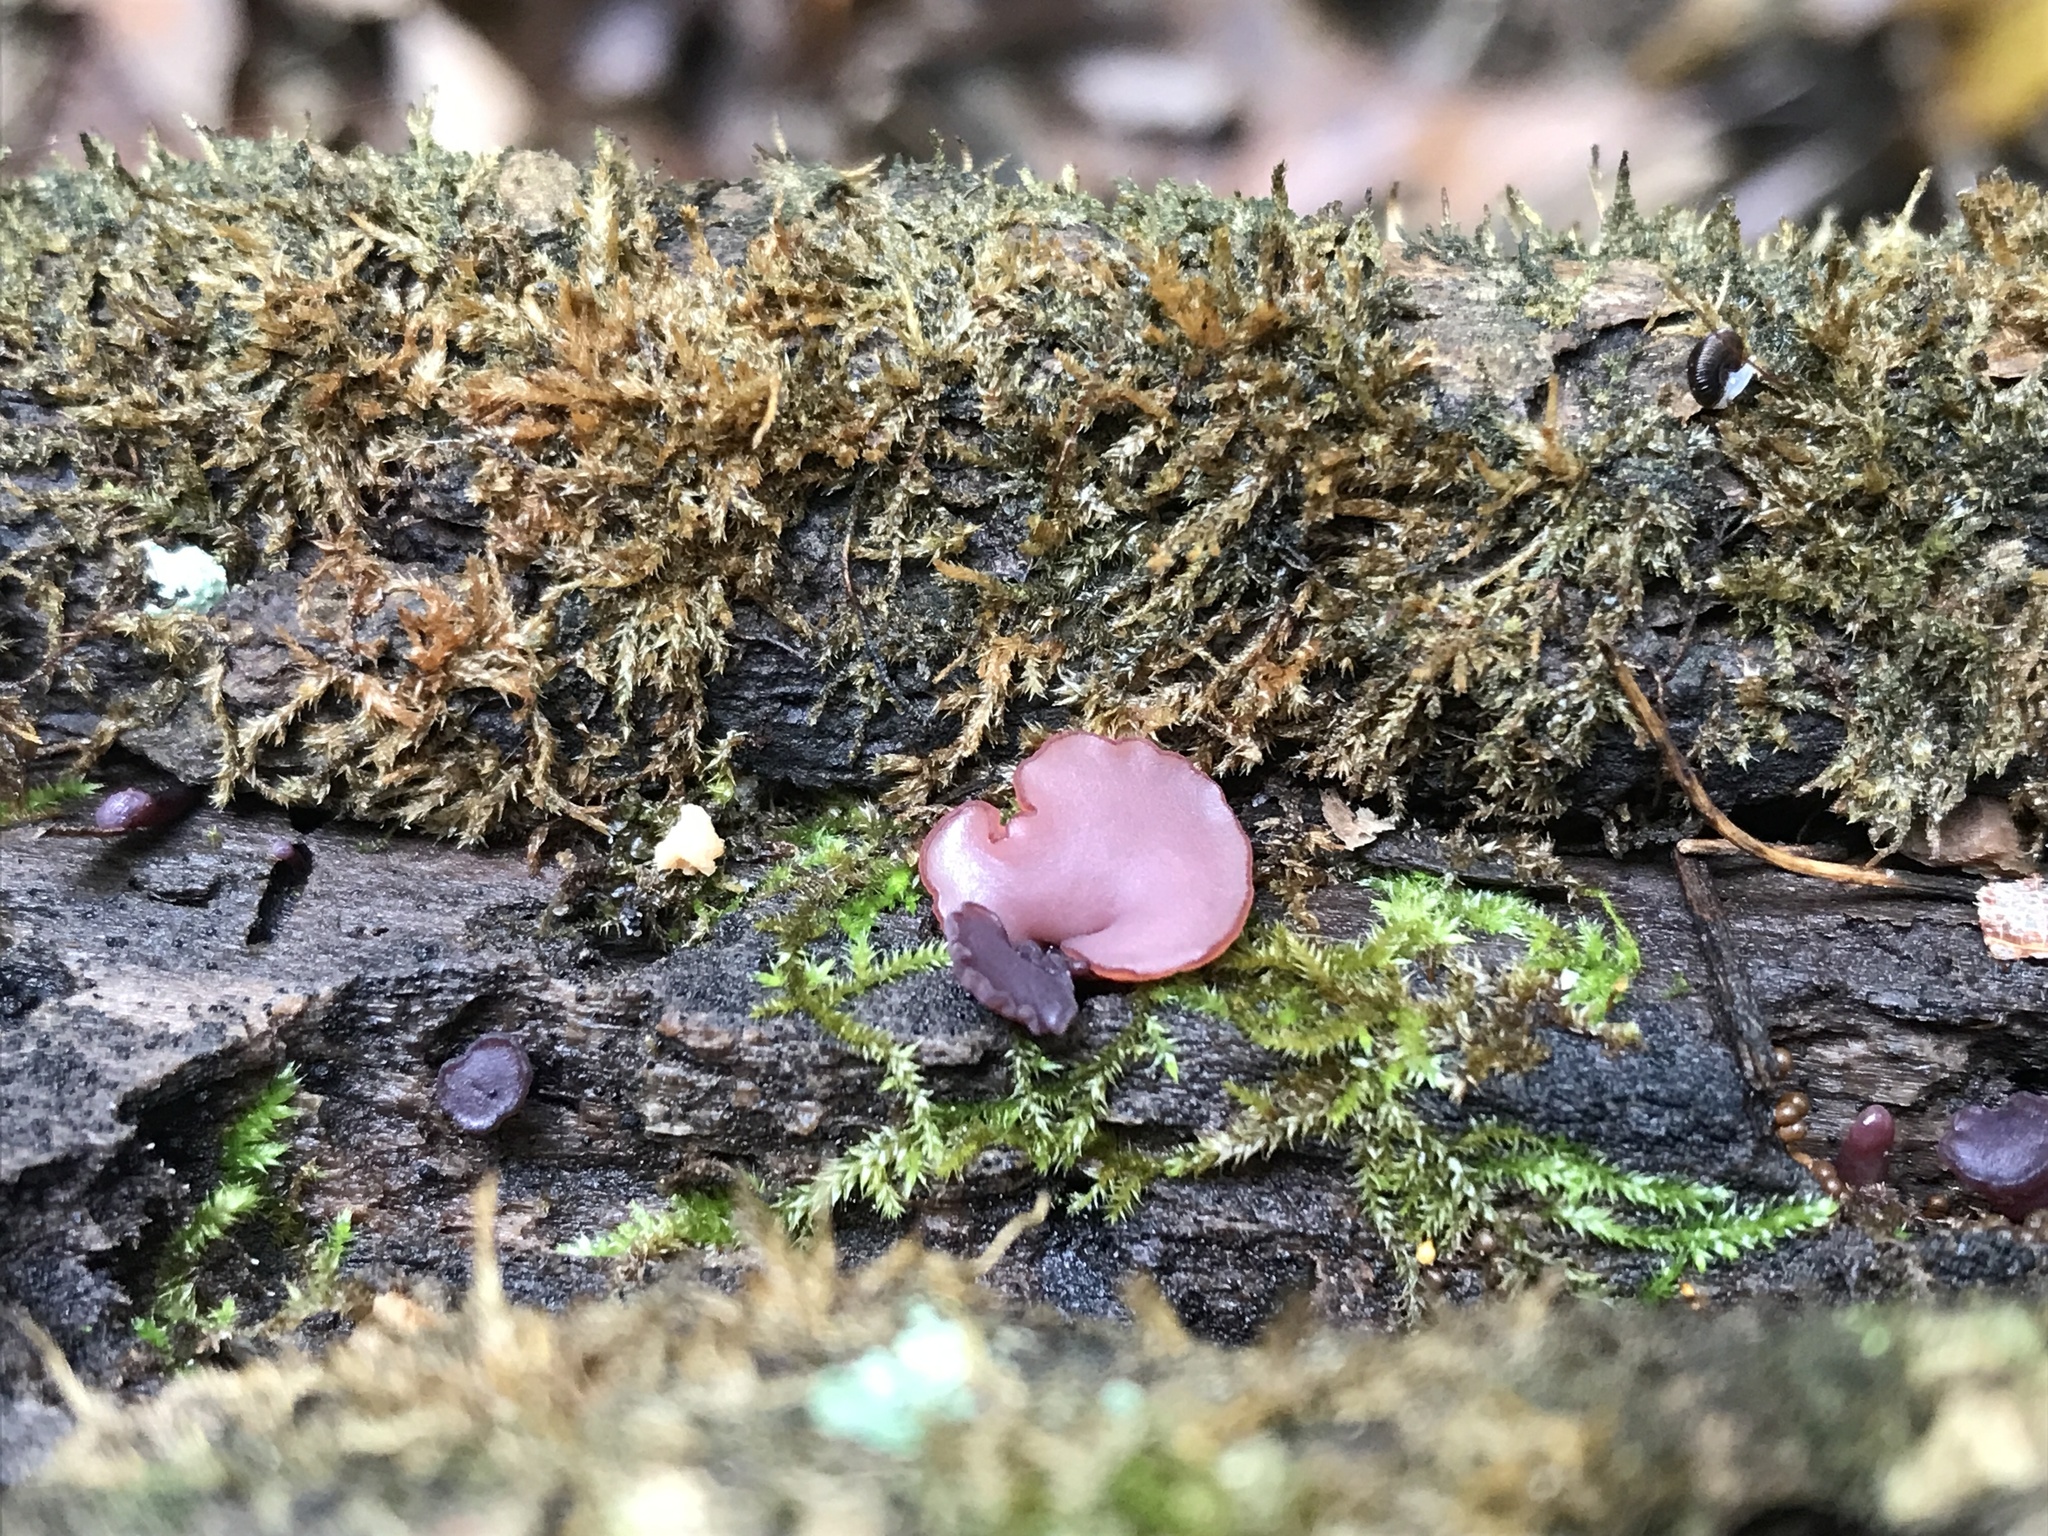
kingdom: Fungi
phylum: Ascomycota
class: Leotiomycetes
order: Helotiales
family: Gelatinodiscaceae
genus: Ascocoryne
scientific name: Ascocoryne sarcoides
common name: Purple jellydisc
